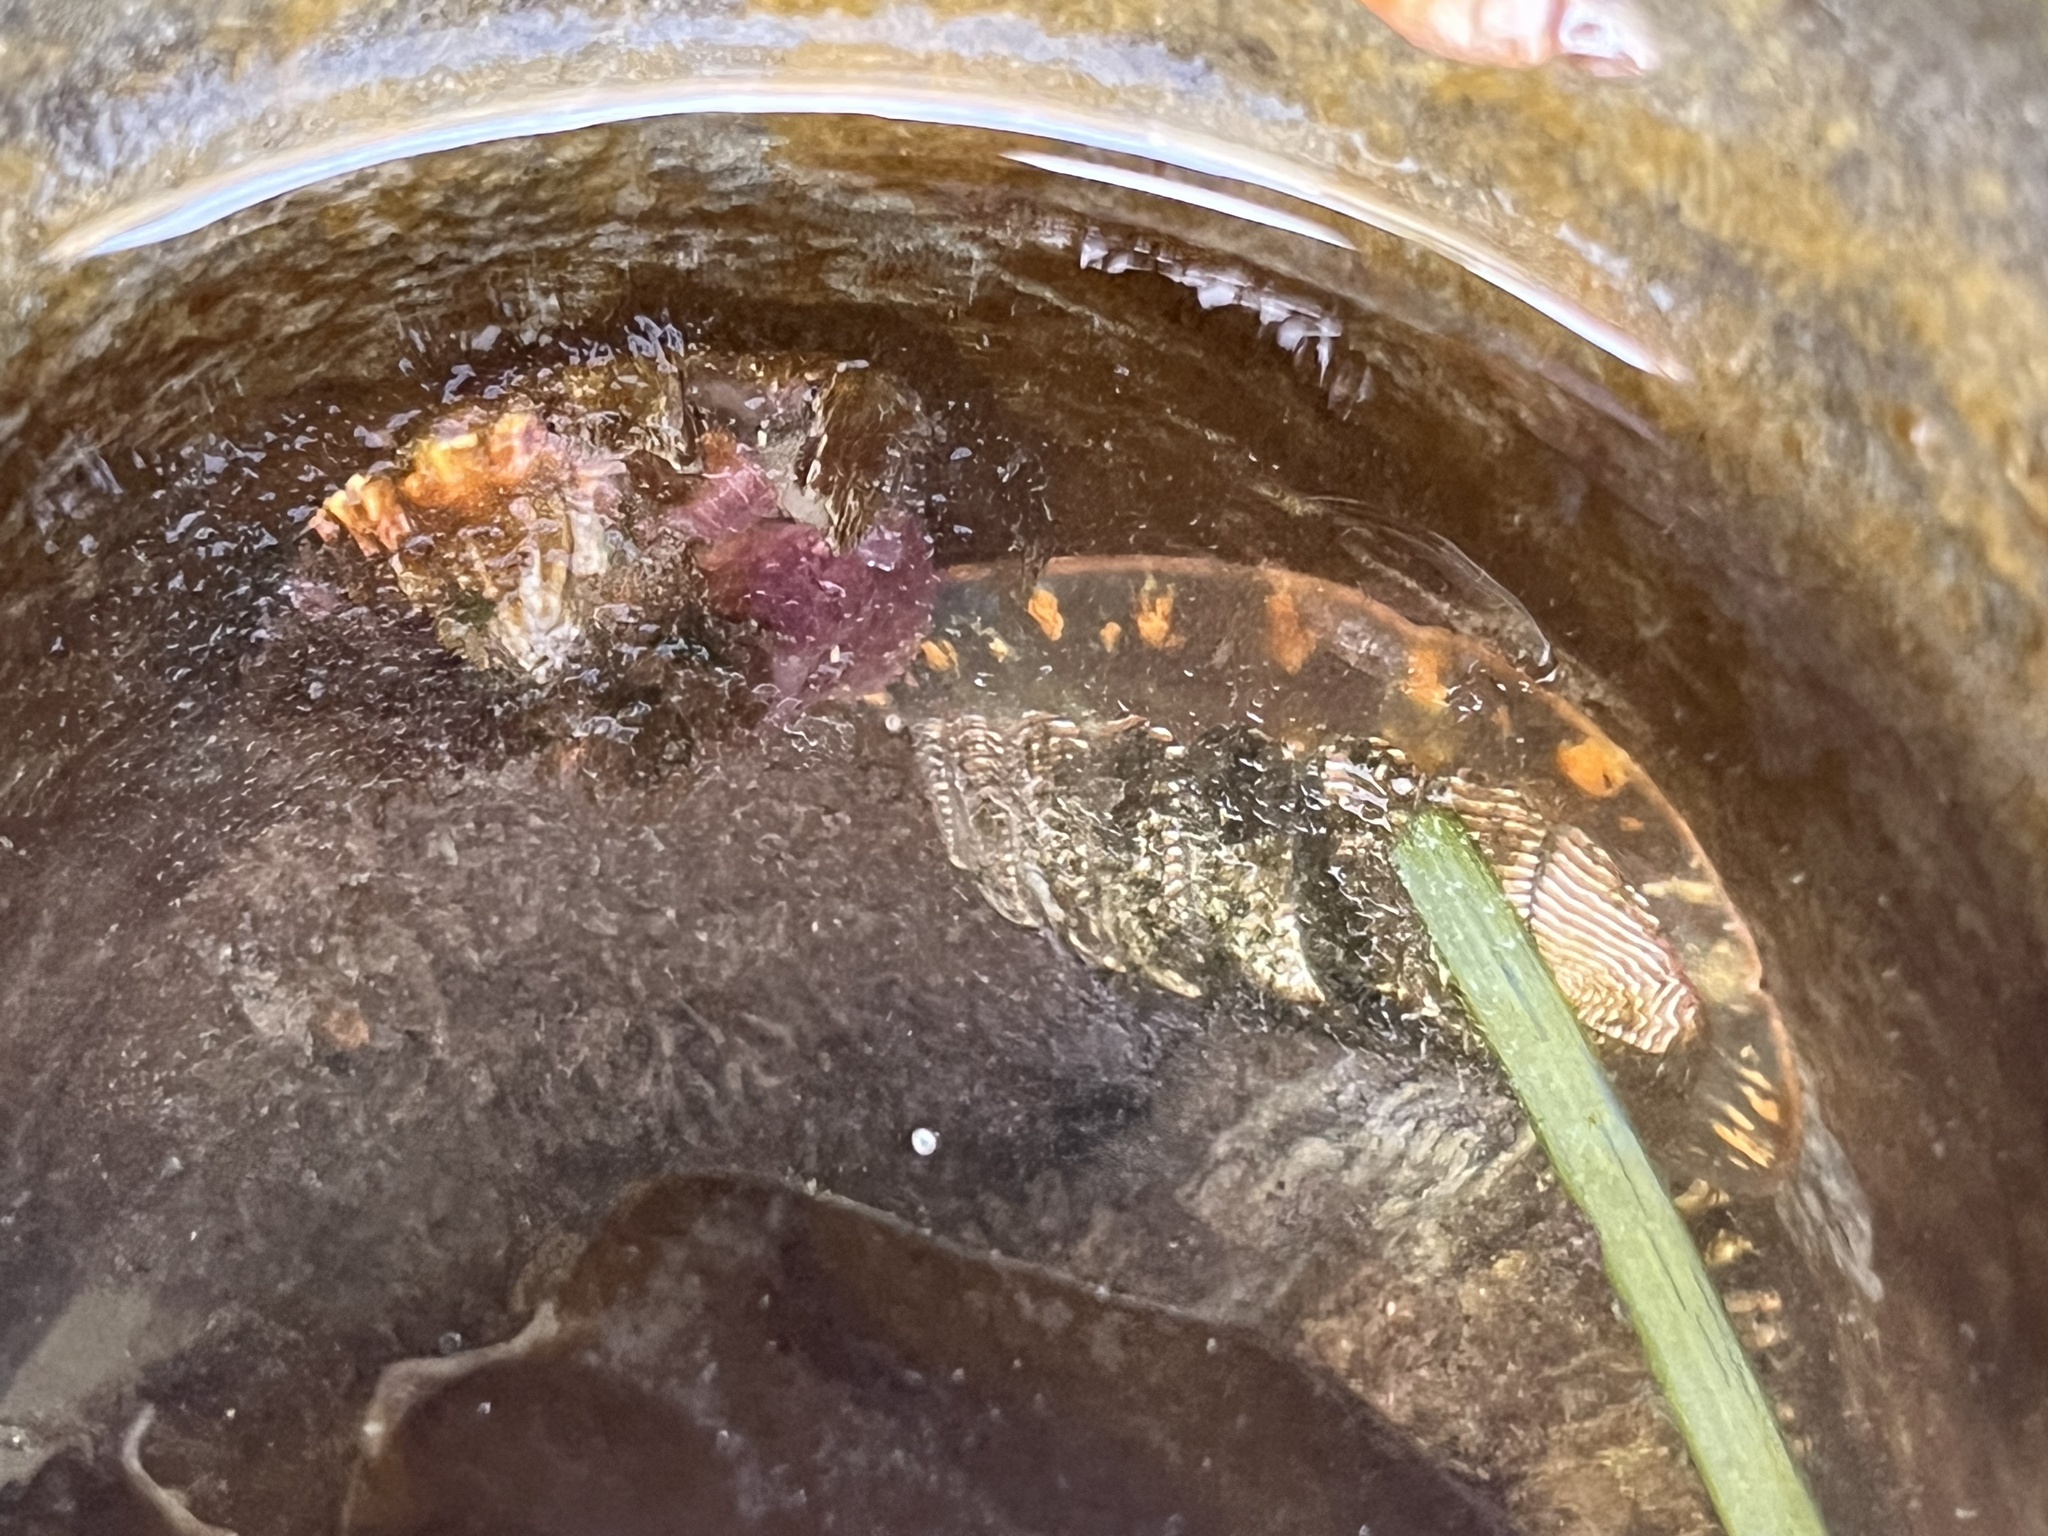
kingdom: Animalia
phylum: Mollusca
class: Polyplacophora
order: Chitonida
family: Tonicellidae
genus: Tonicella
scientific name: Tonicella lineata
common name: Lined chiton
